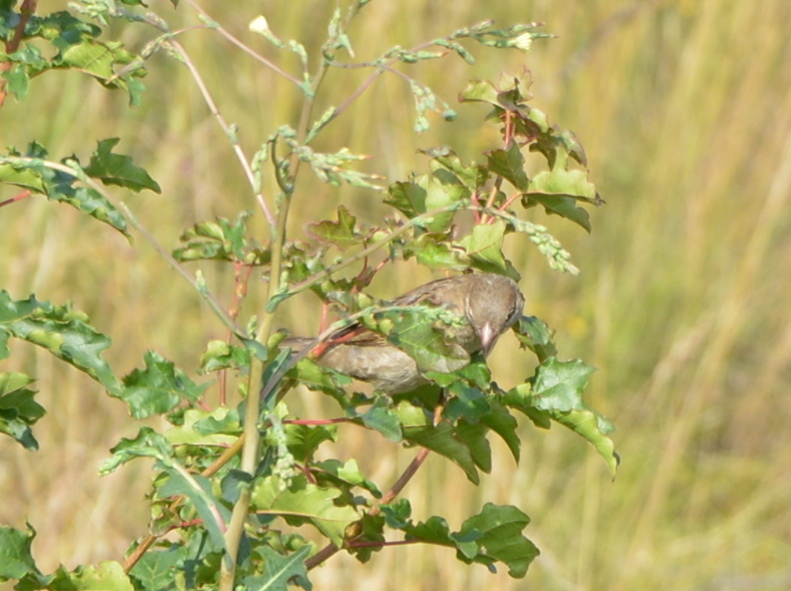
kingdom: Animalia
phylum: Chordata
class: Aves
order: Passeriformes
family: Passeridae
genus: Passer
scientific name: Passer domesticus
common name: House sparrow
